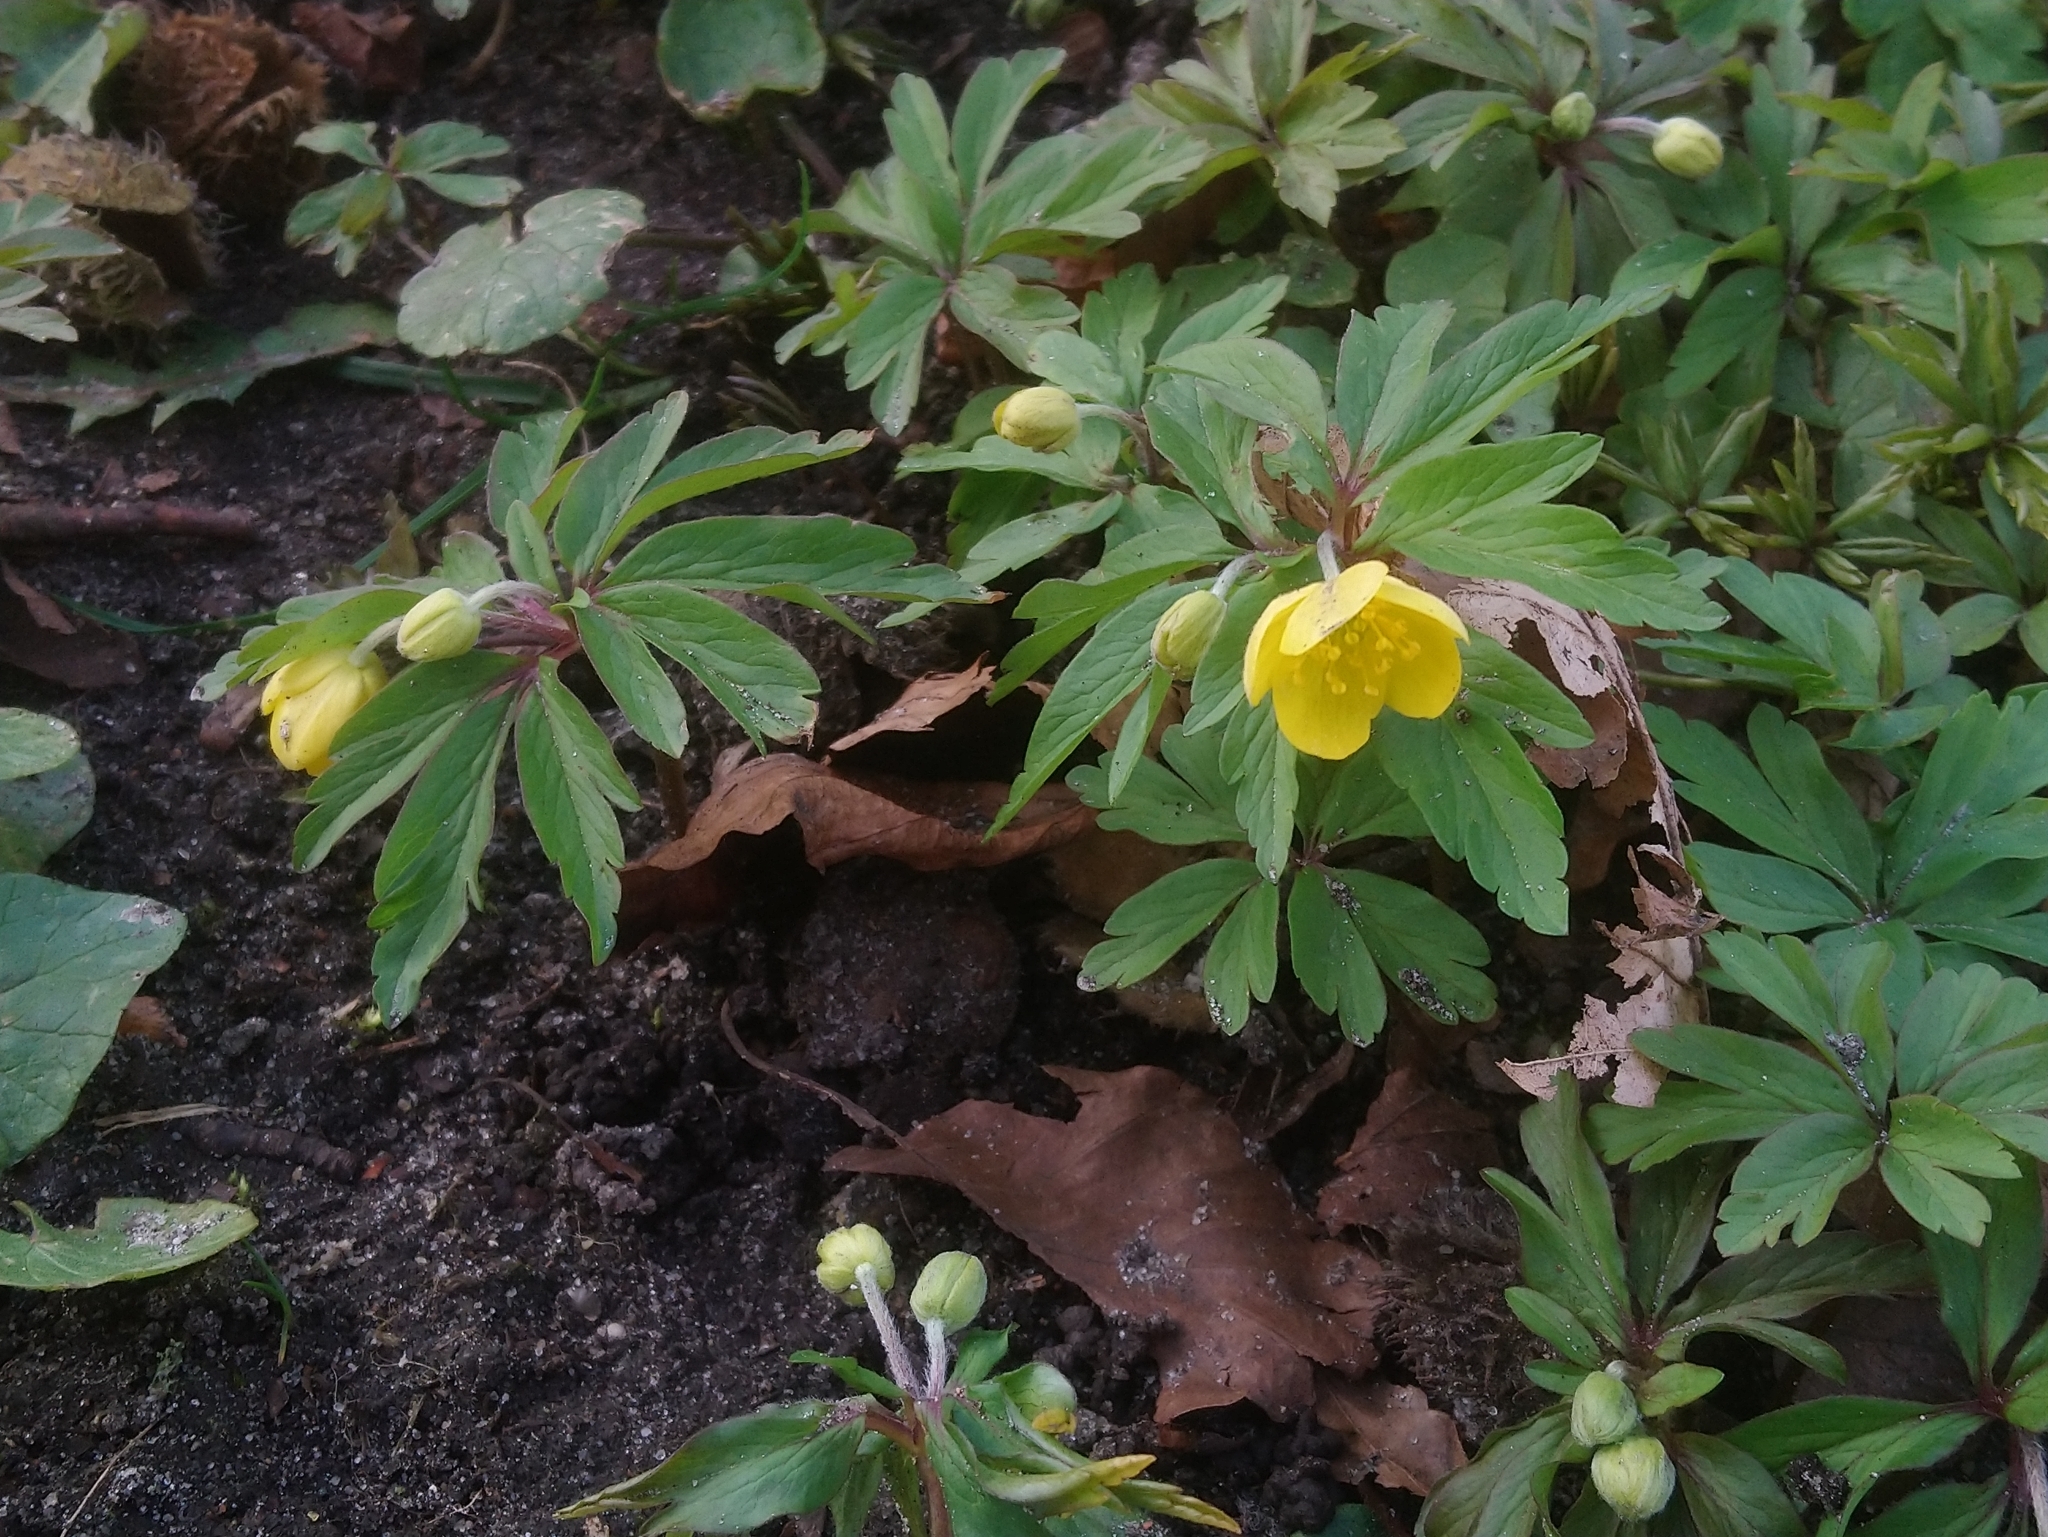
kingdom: Plantae
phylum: Tracheophyta
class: Magnoliopsida
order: Ranunculales
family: Ranunculaceae
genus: Anemone
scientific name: Anemone ranunculoides
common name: Yellow anemone
